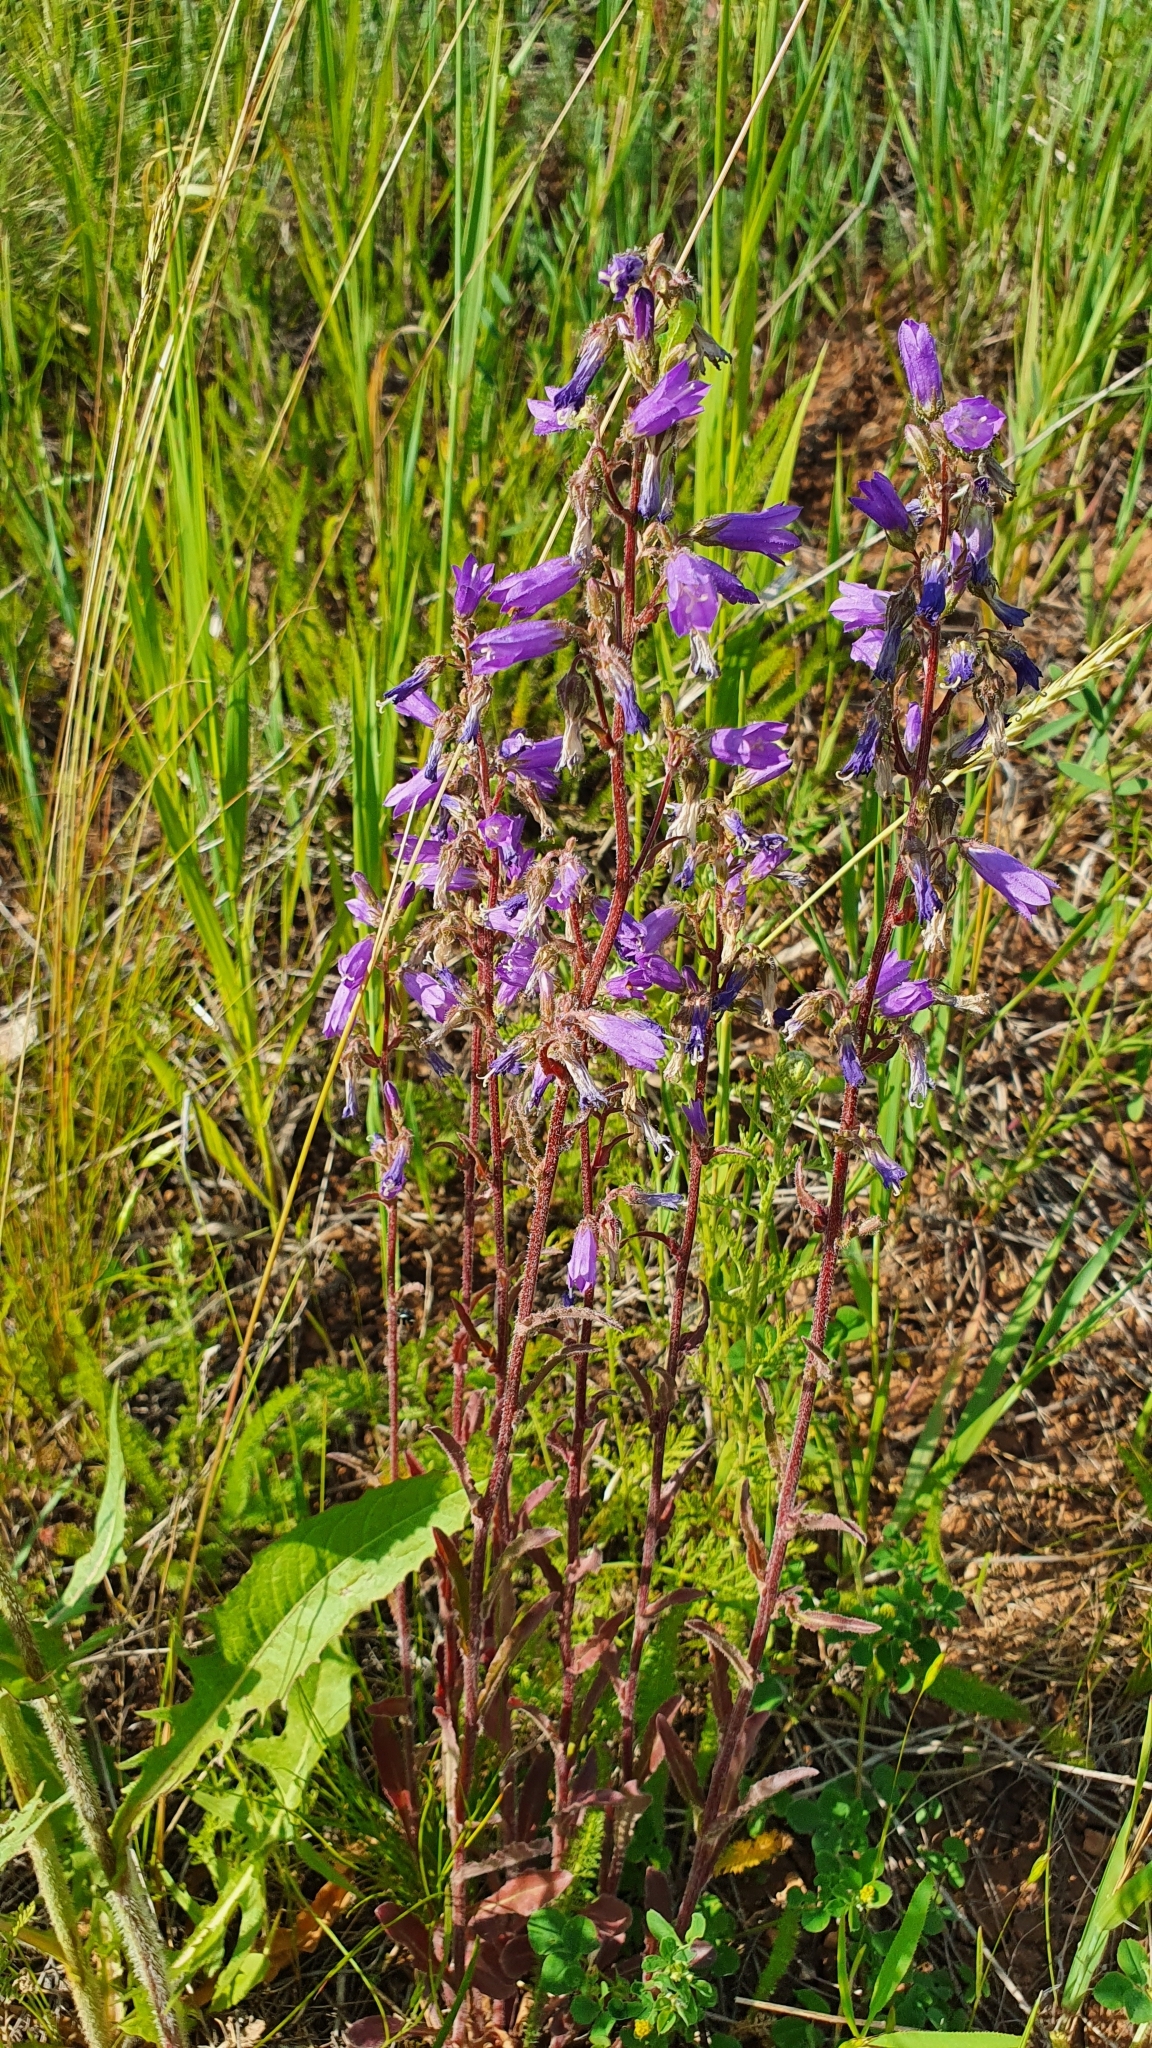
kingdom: Plantae
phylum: Tracheophyta
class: Magnoliopsida
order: Asterales
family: Campanulaceae
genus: Campanula
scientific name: Campanula sibirica
